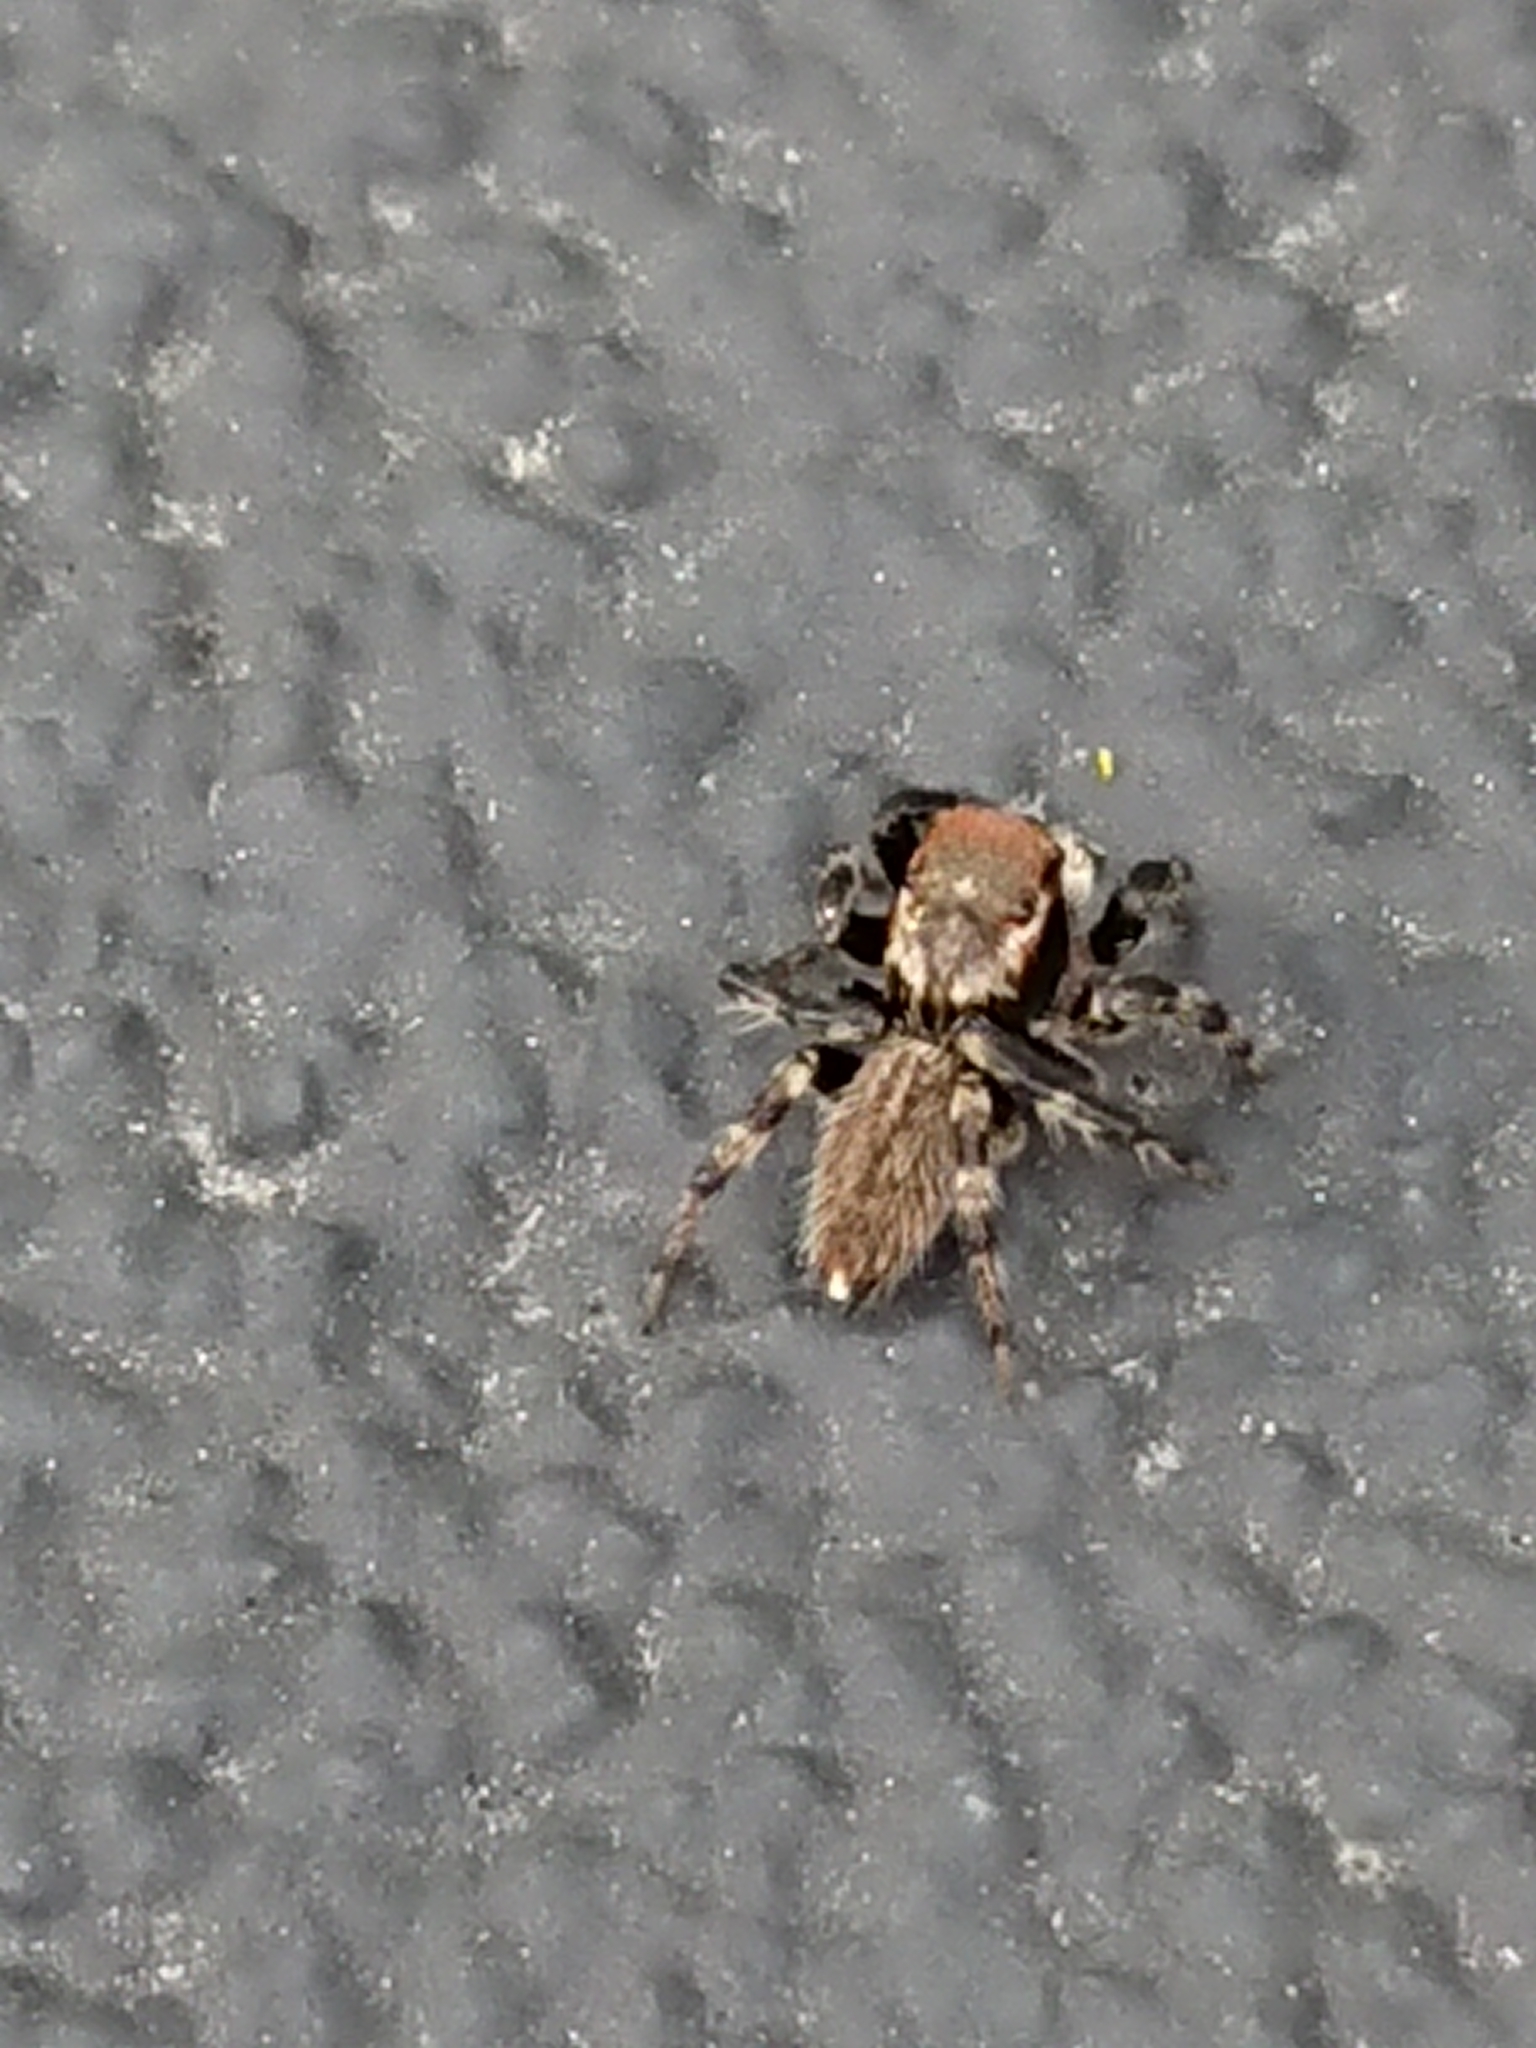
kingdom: Animalia
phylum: Arthropoda
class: Arachnida
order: Araneae
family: Salticidae
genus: Maratus
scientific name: Maratus griseus
